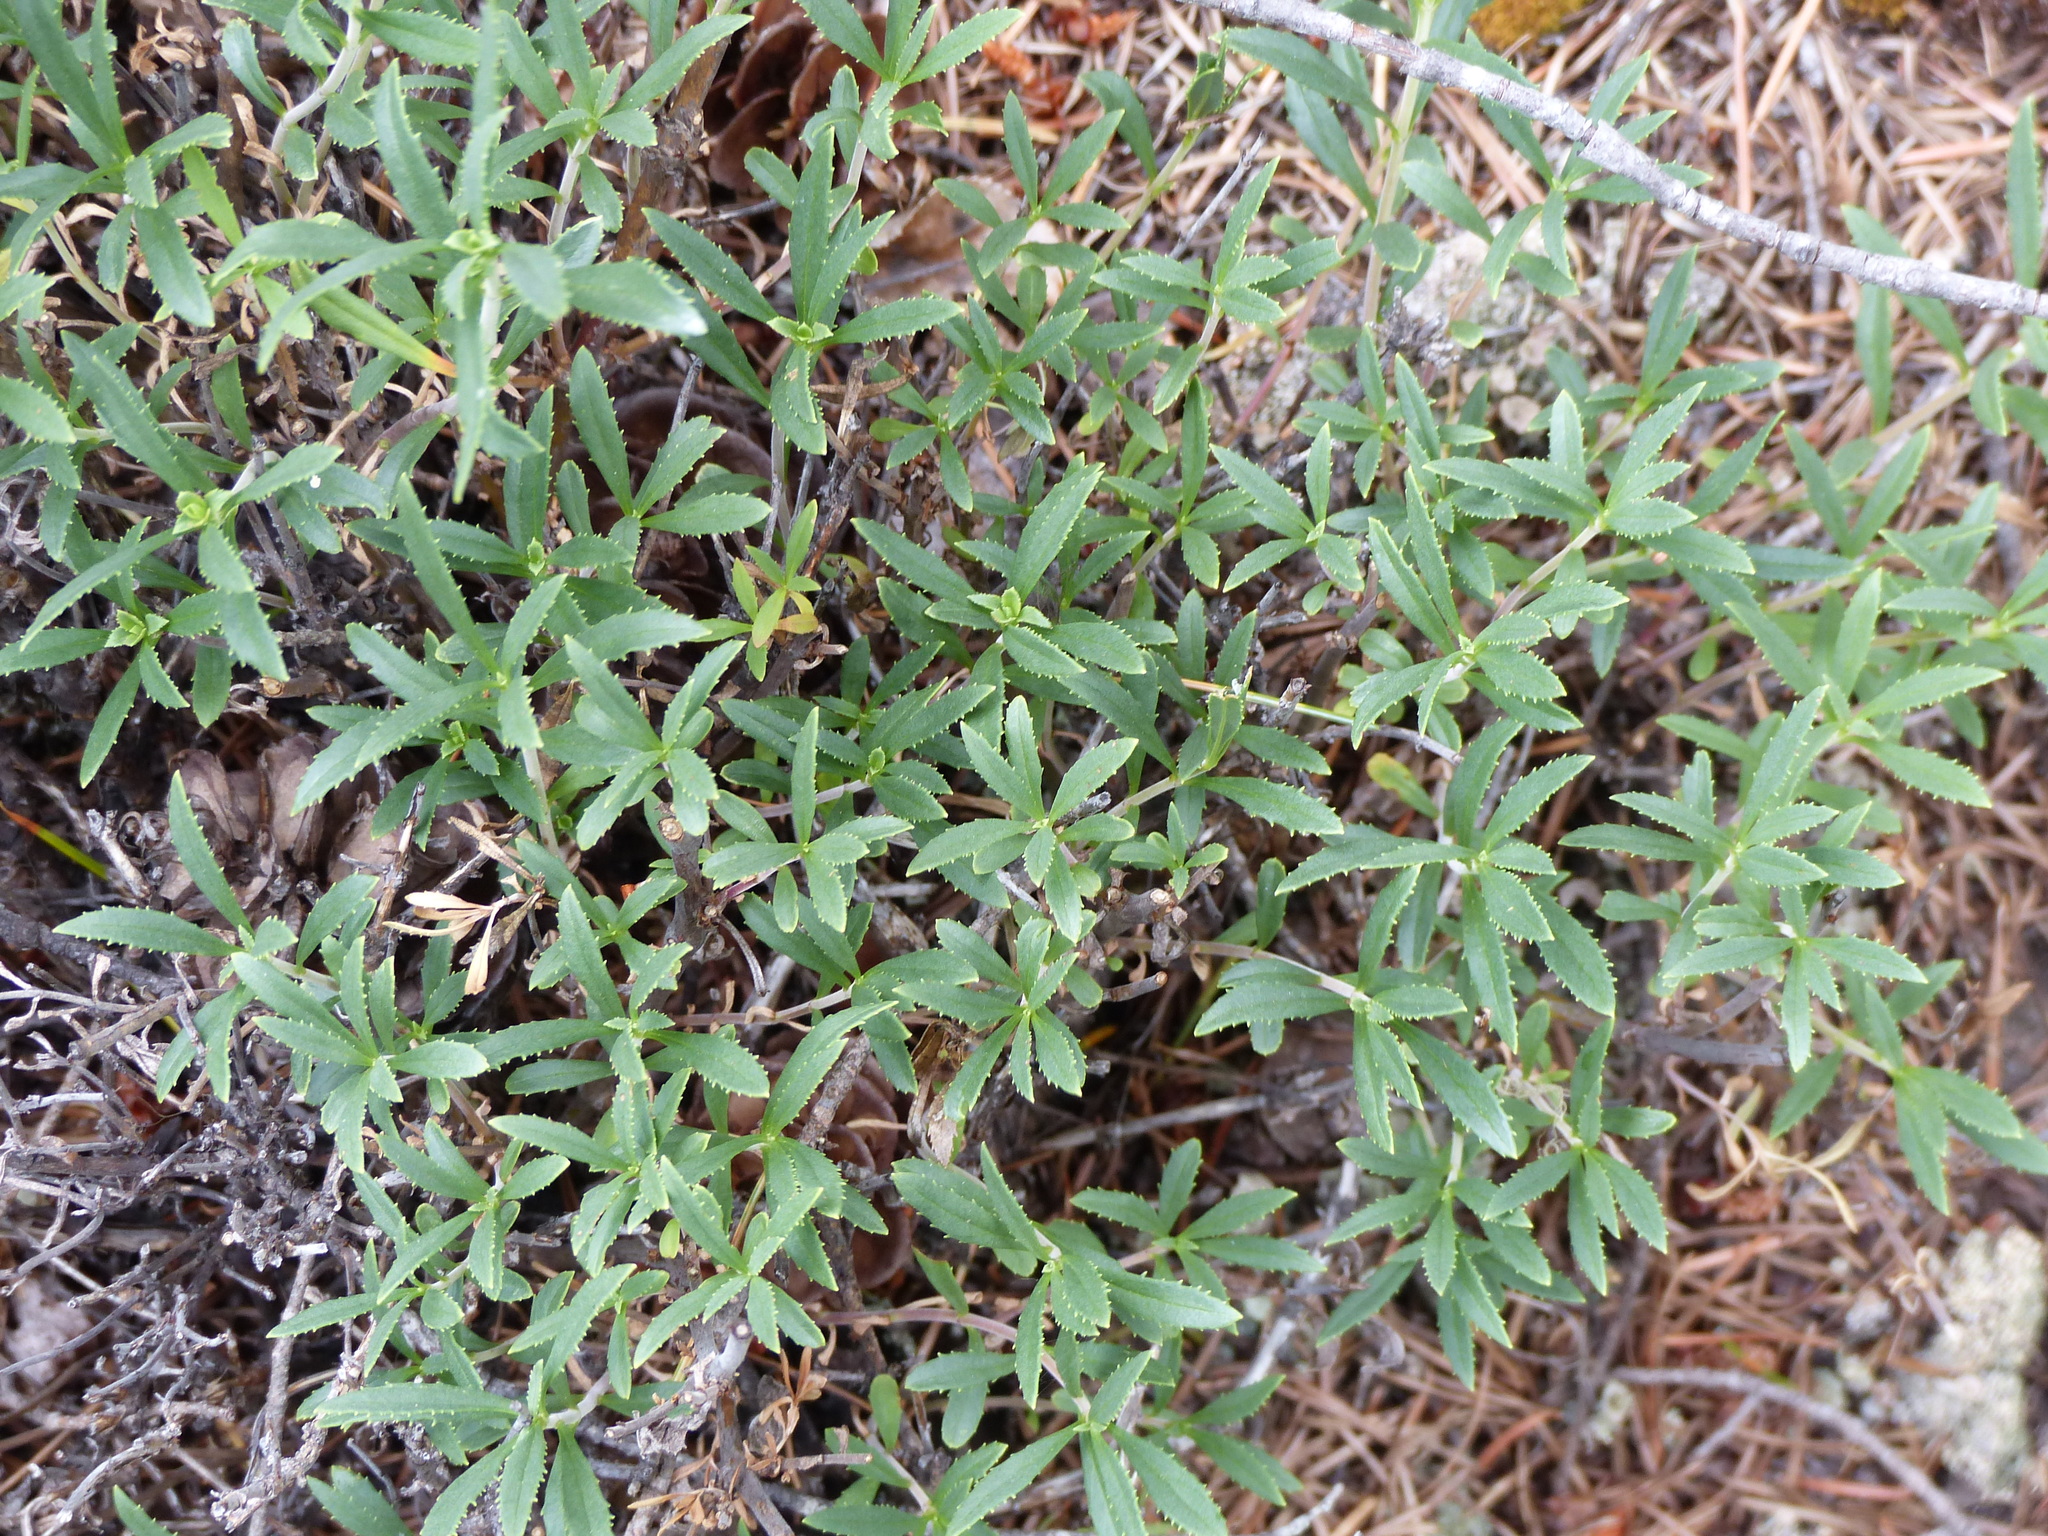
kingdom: Plantae
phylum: Tracheophyta
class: Magnoliopsida
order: Lamiales
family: Plantaginaceae
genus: Penstemon
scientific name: Penstemon fruticosus
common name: Bush penstemon
